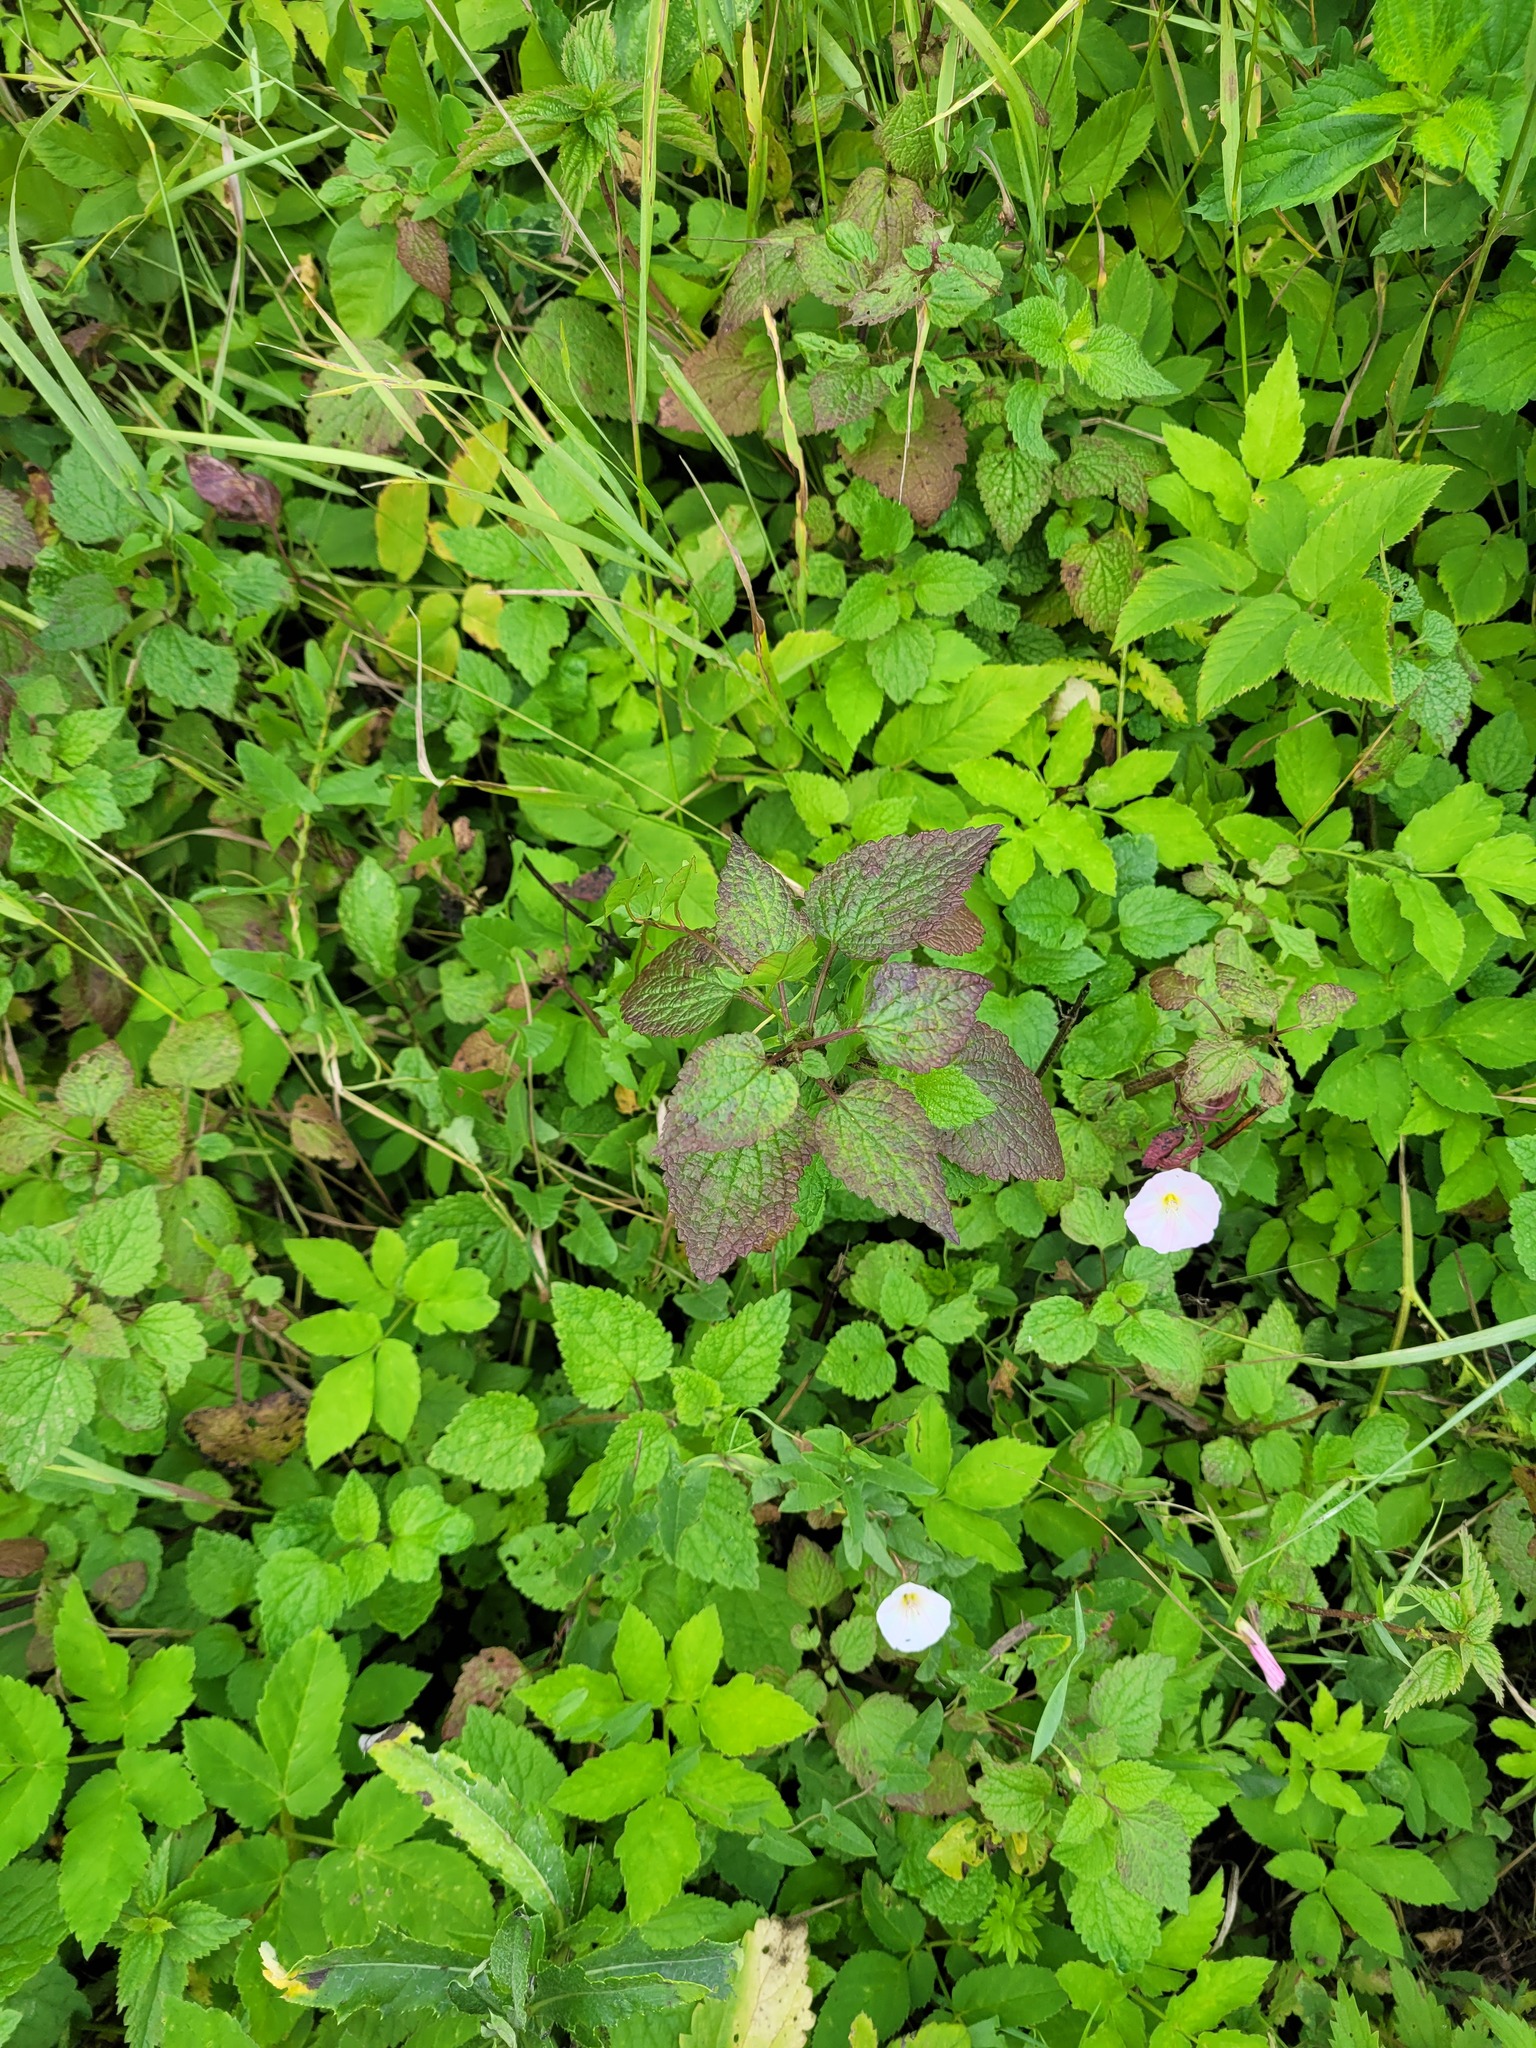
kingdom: Plantae
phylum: Tracheophyta
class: Magnoliopsida
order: Lamiales
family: Lamiaceae
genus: Lamium
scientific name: Lamium maculatum
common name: Spotted dead-nettle
